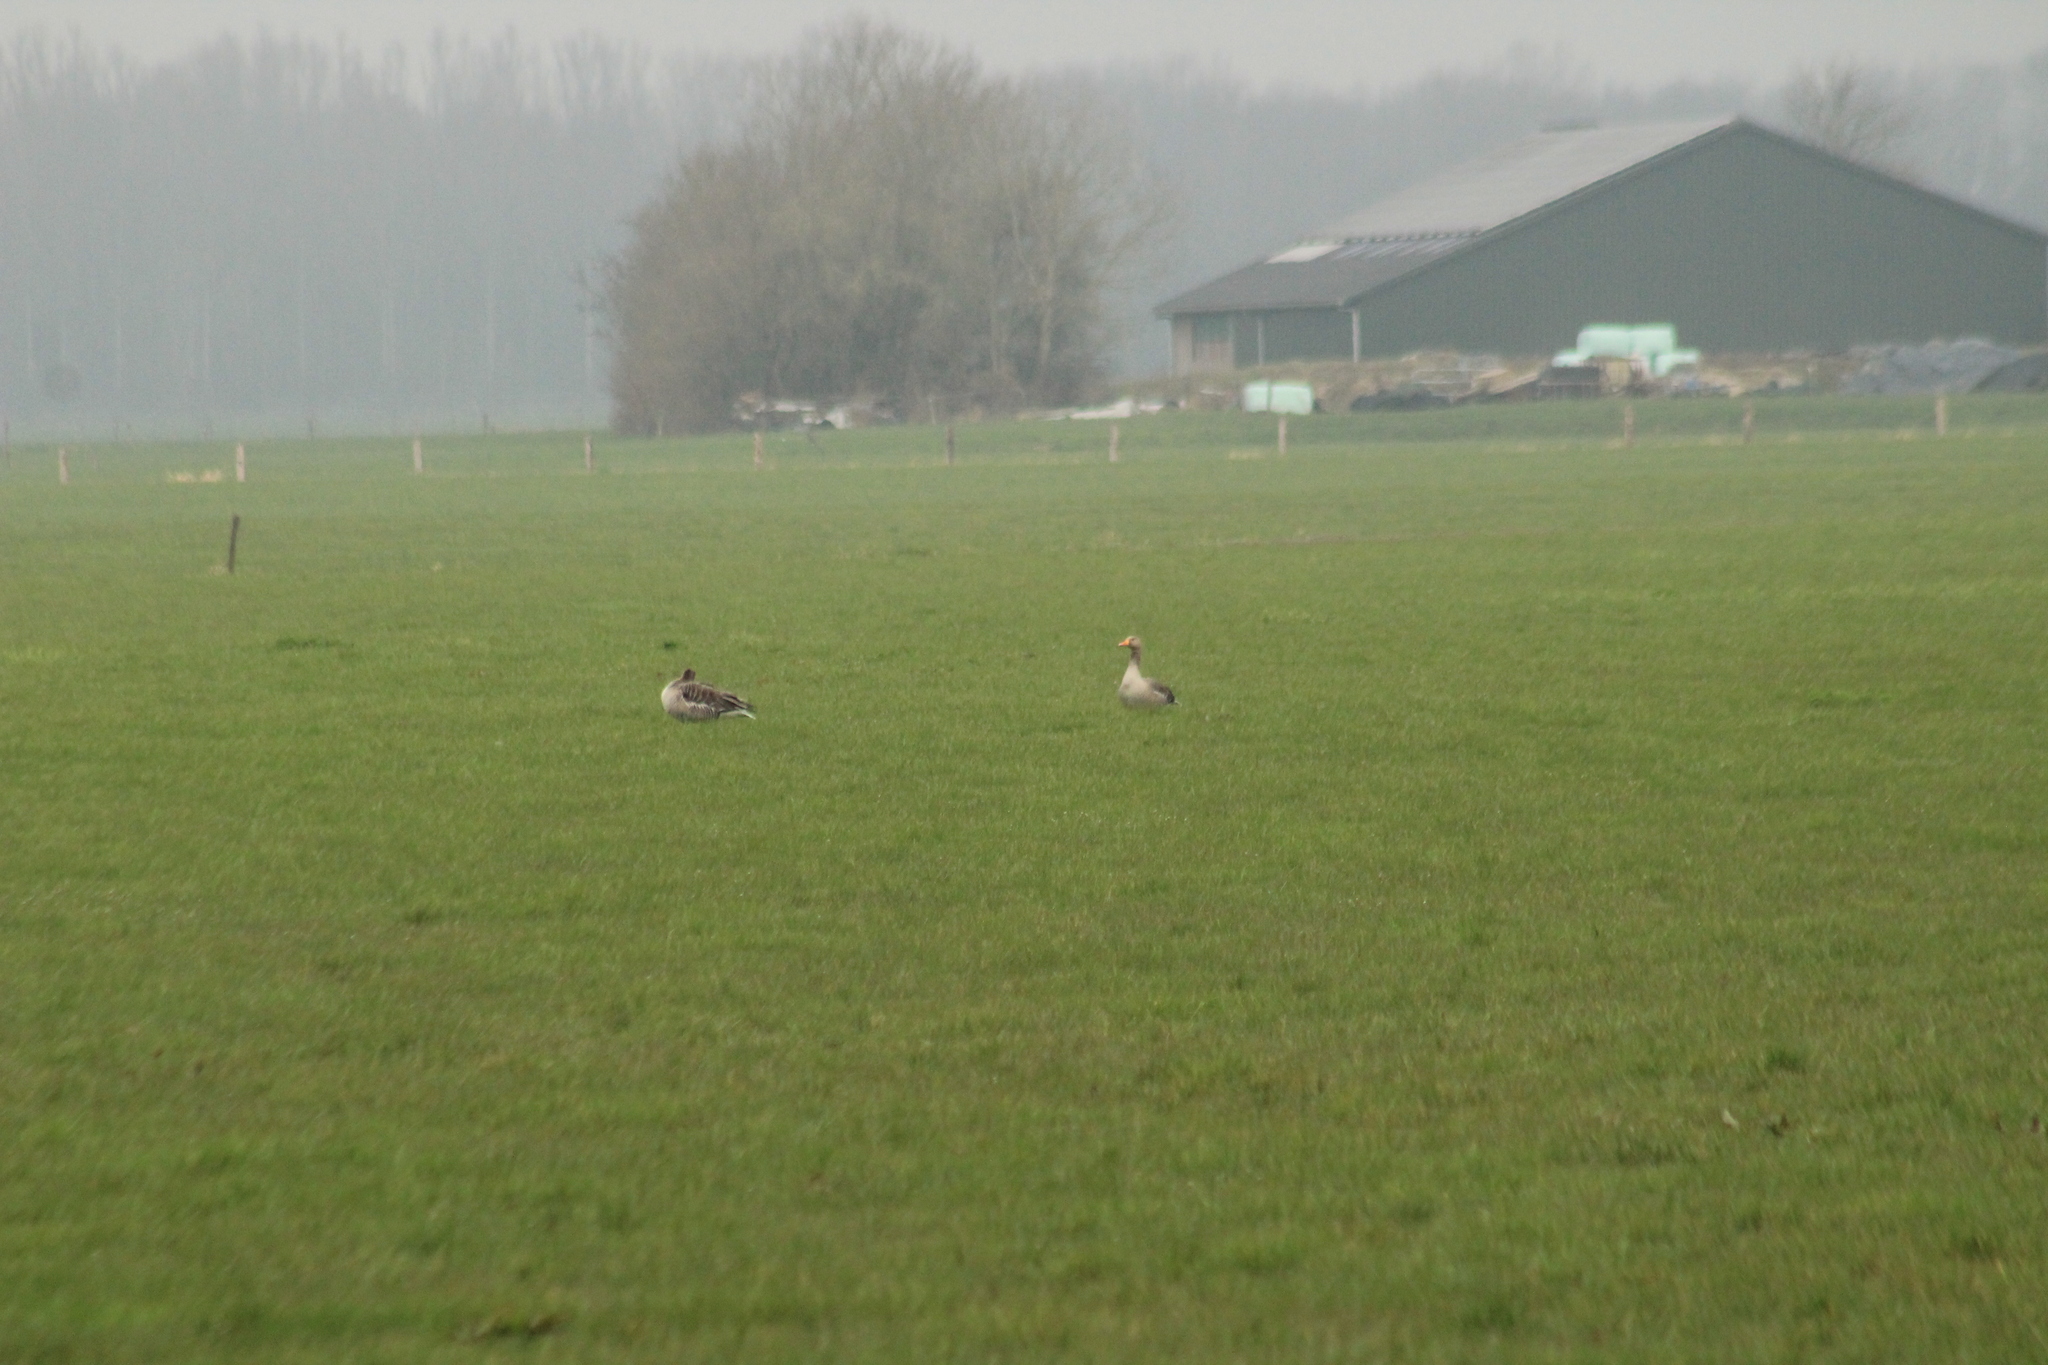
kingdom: Animalia
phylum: Chordata
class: Aves
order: Anseriformes
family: Anatidae
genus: Anser
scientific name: Anser anser
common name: Greylag goose
